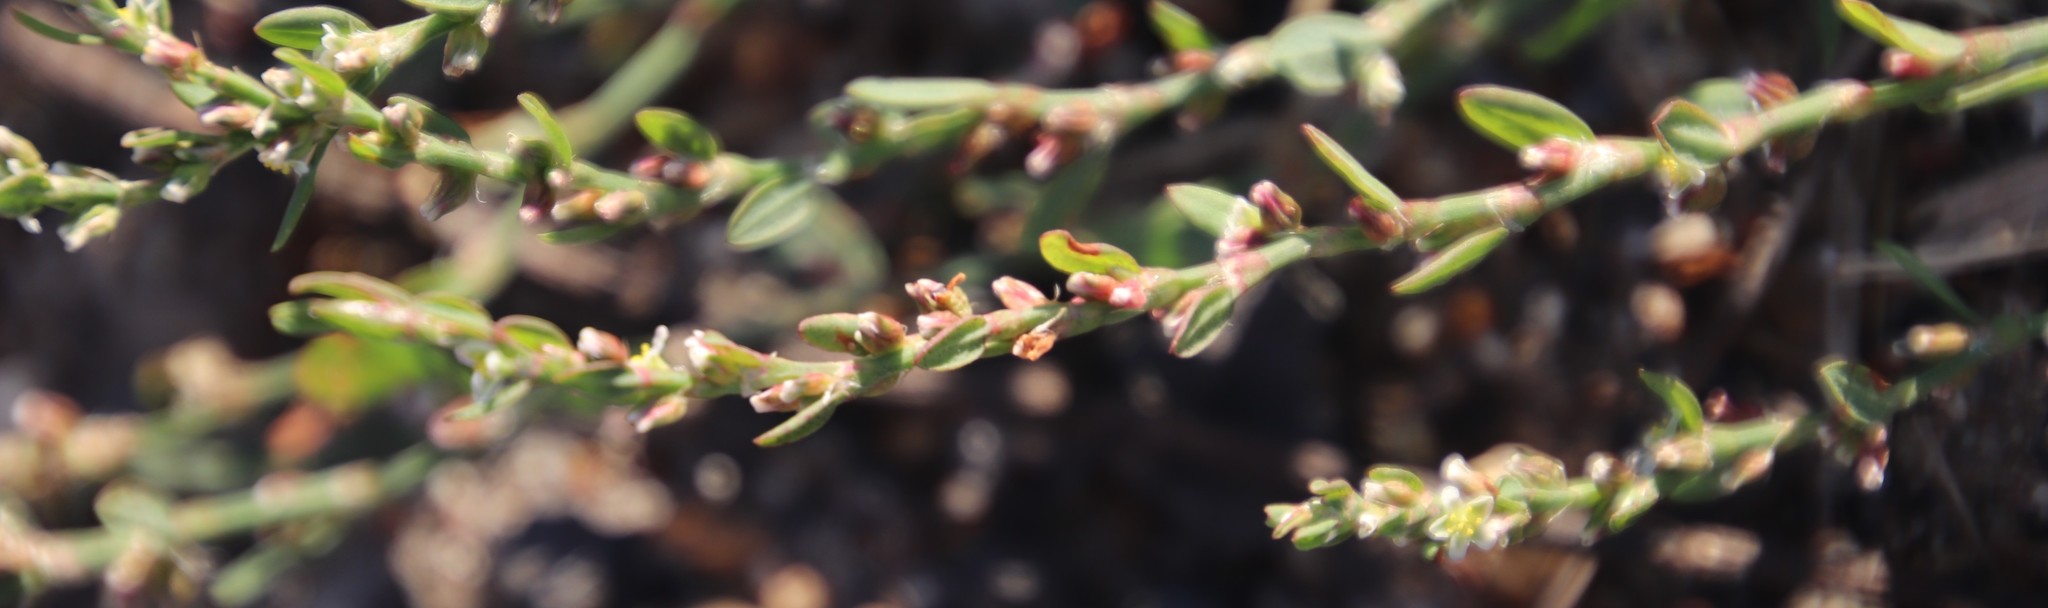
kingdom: Plantae
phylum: Tracheophyta
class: Magnoliopsida
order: Caryophyllales
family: Polygonaceae
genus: Polygonum
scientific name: Polygonum aviculare
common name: Prostrate knotweed
